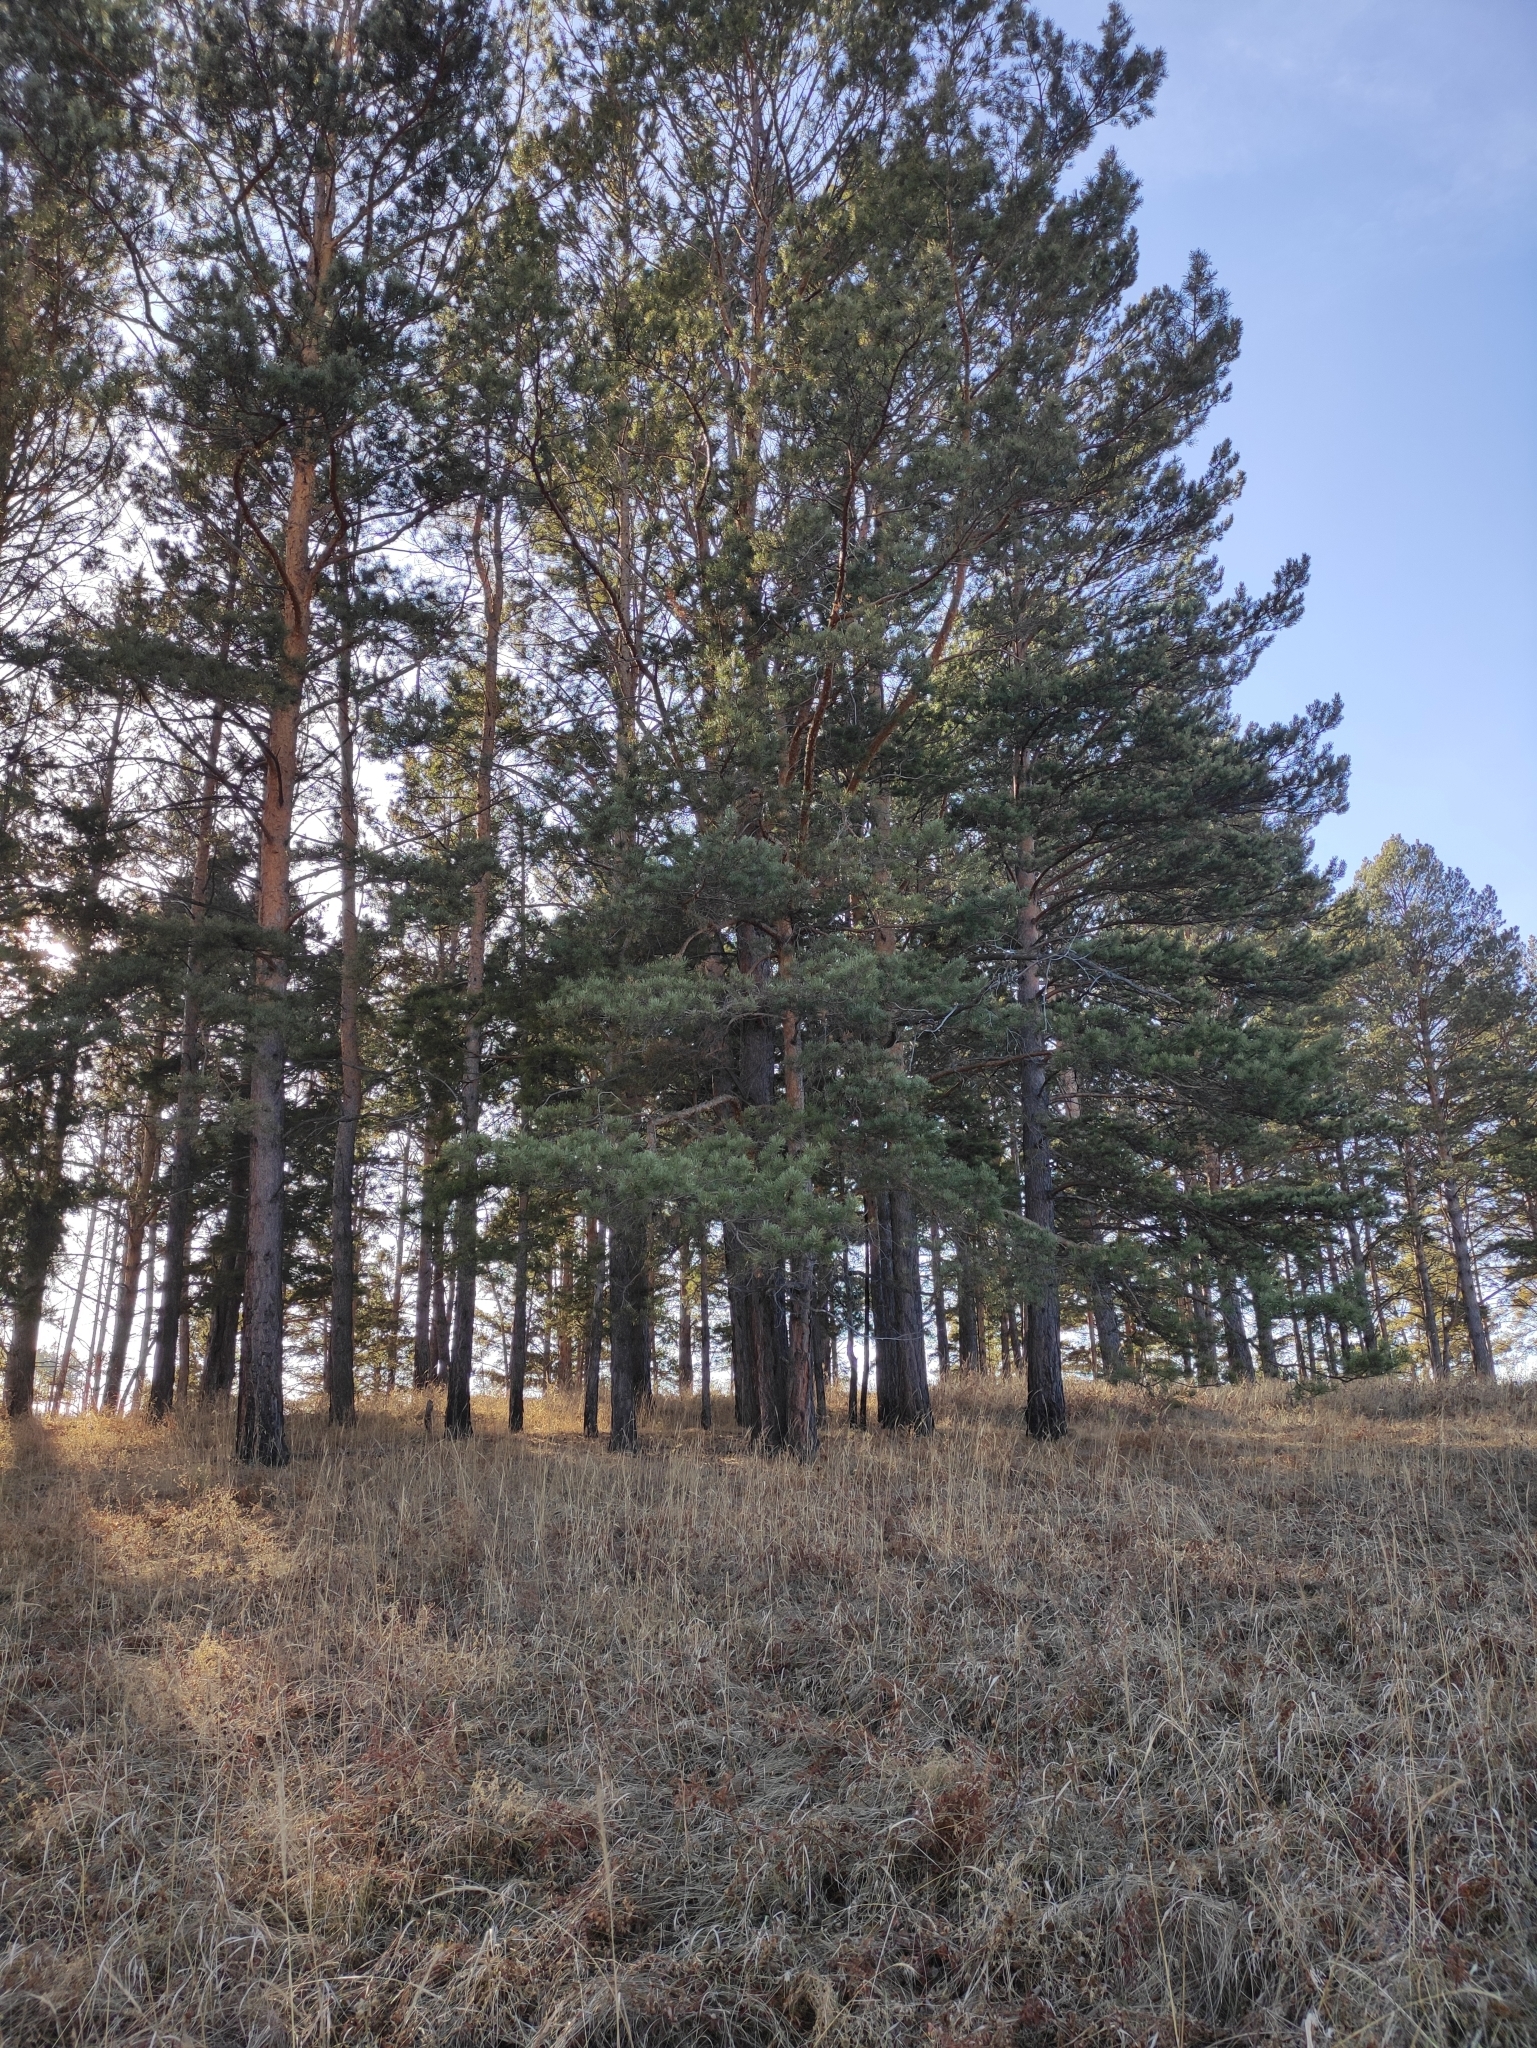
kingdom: Plantae
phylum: Tracheophyta
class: Pinopsida
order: Pinales
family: Pinaceae
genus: Pinus
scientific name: Pinus sylvestris
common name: Scots pine
